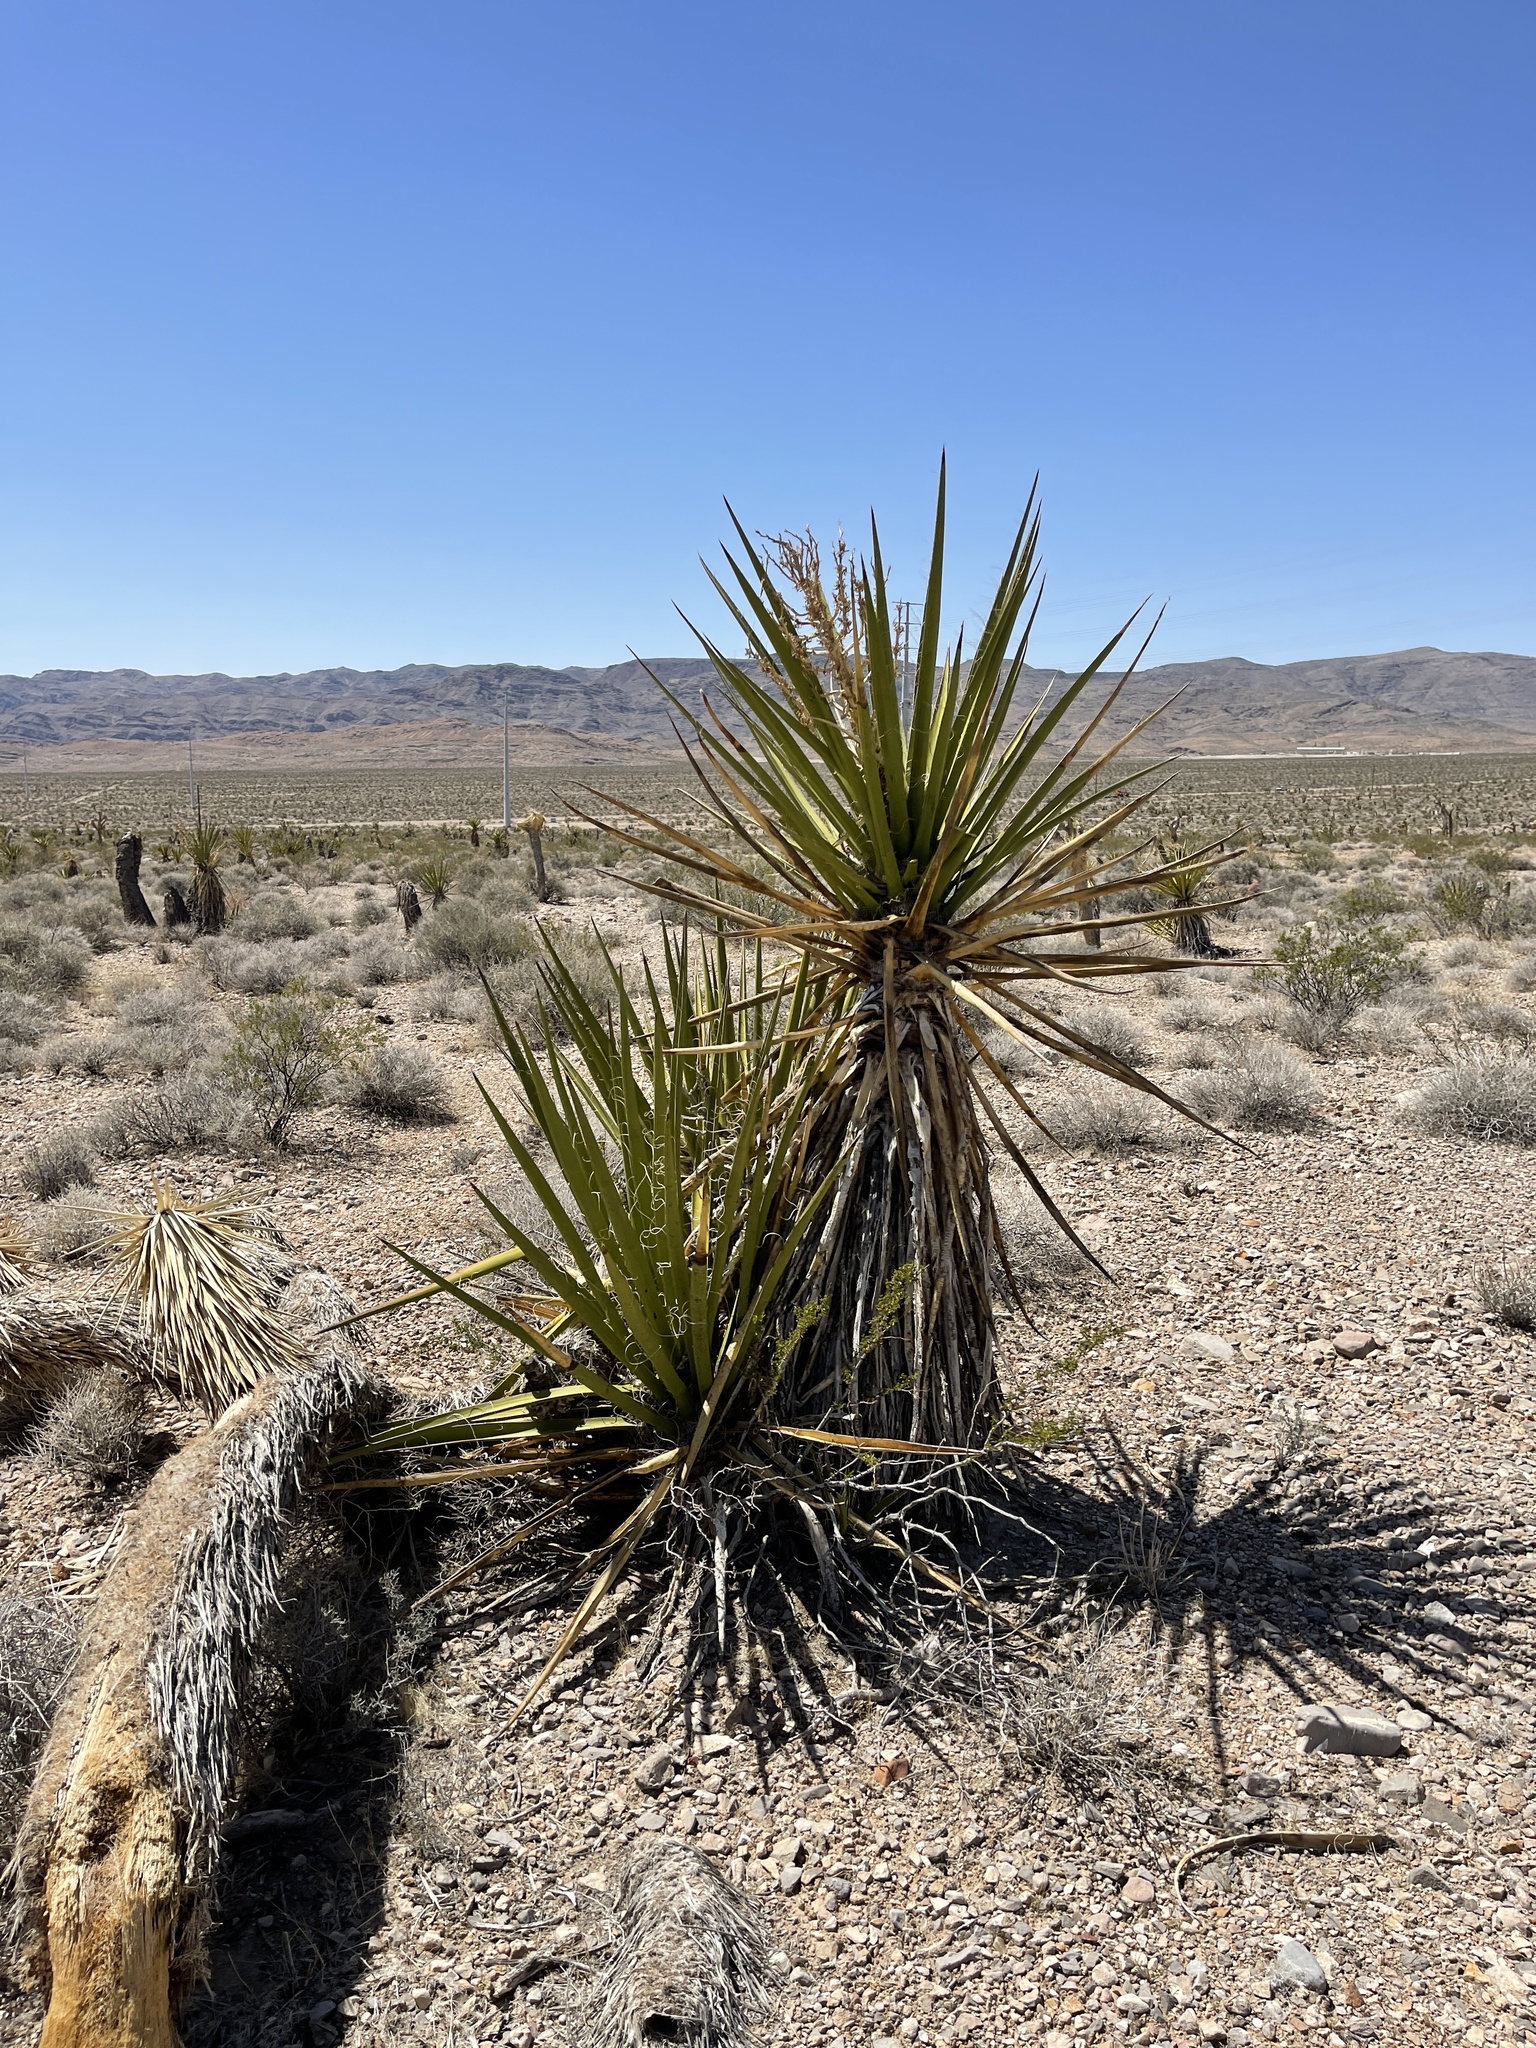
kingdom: Plantae
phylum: Tracheophyta
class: Liliopsida
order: Asparagales
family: Asparagaceae
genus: Yucca
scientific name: Yucca schidigera
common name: Mojave yucca
